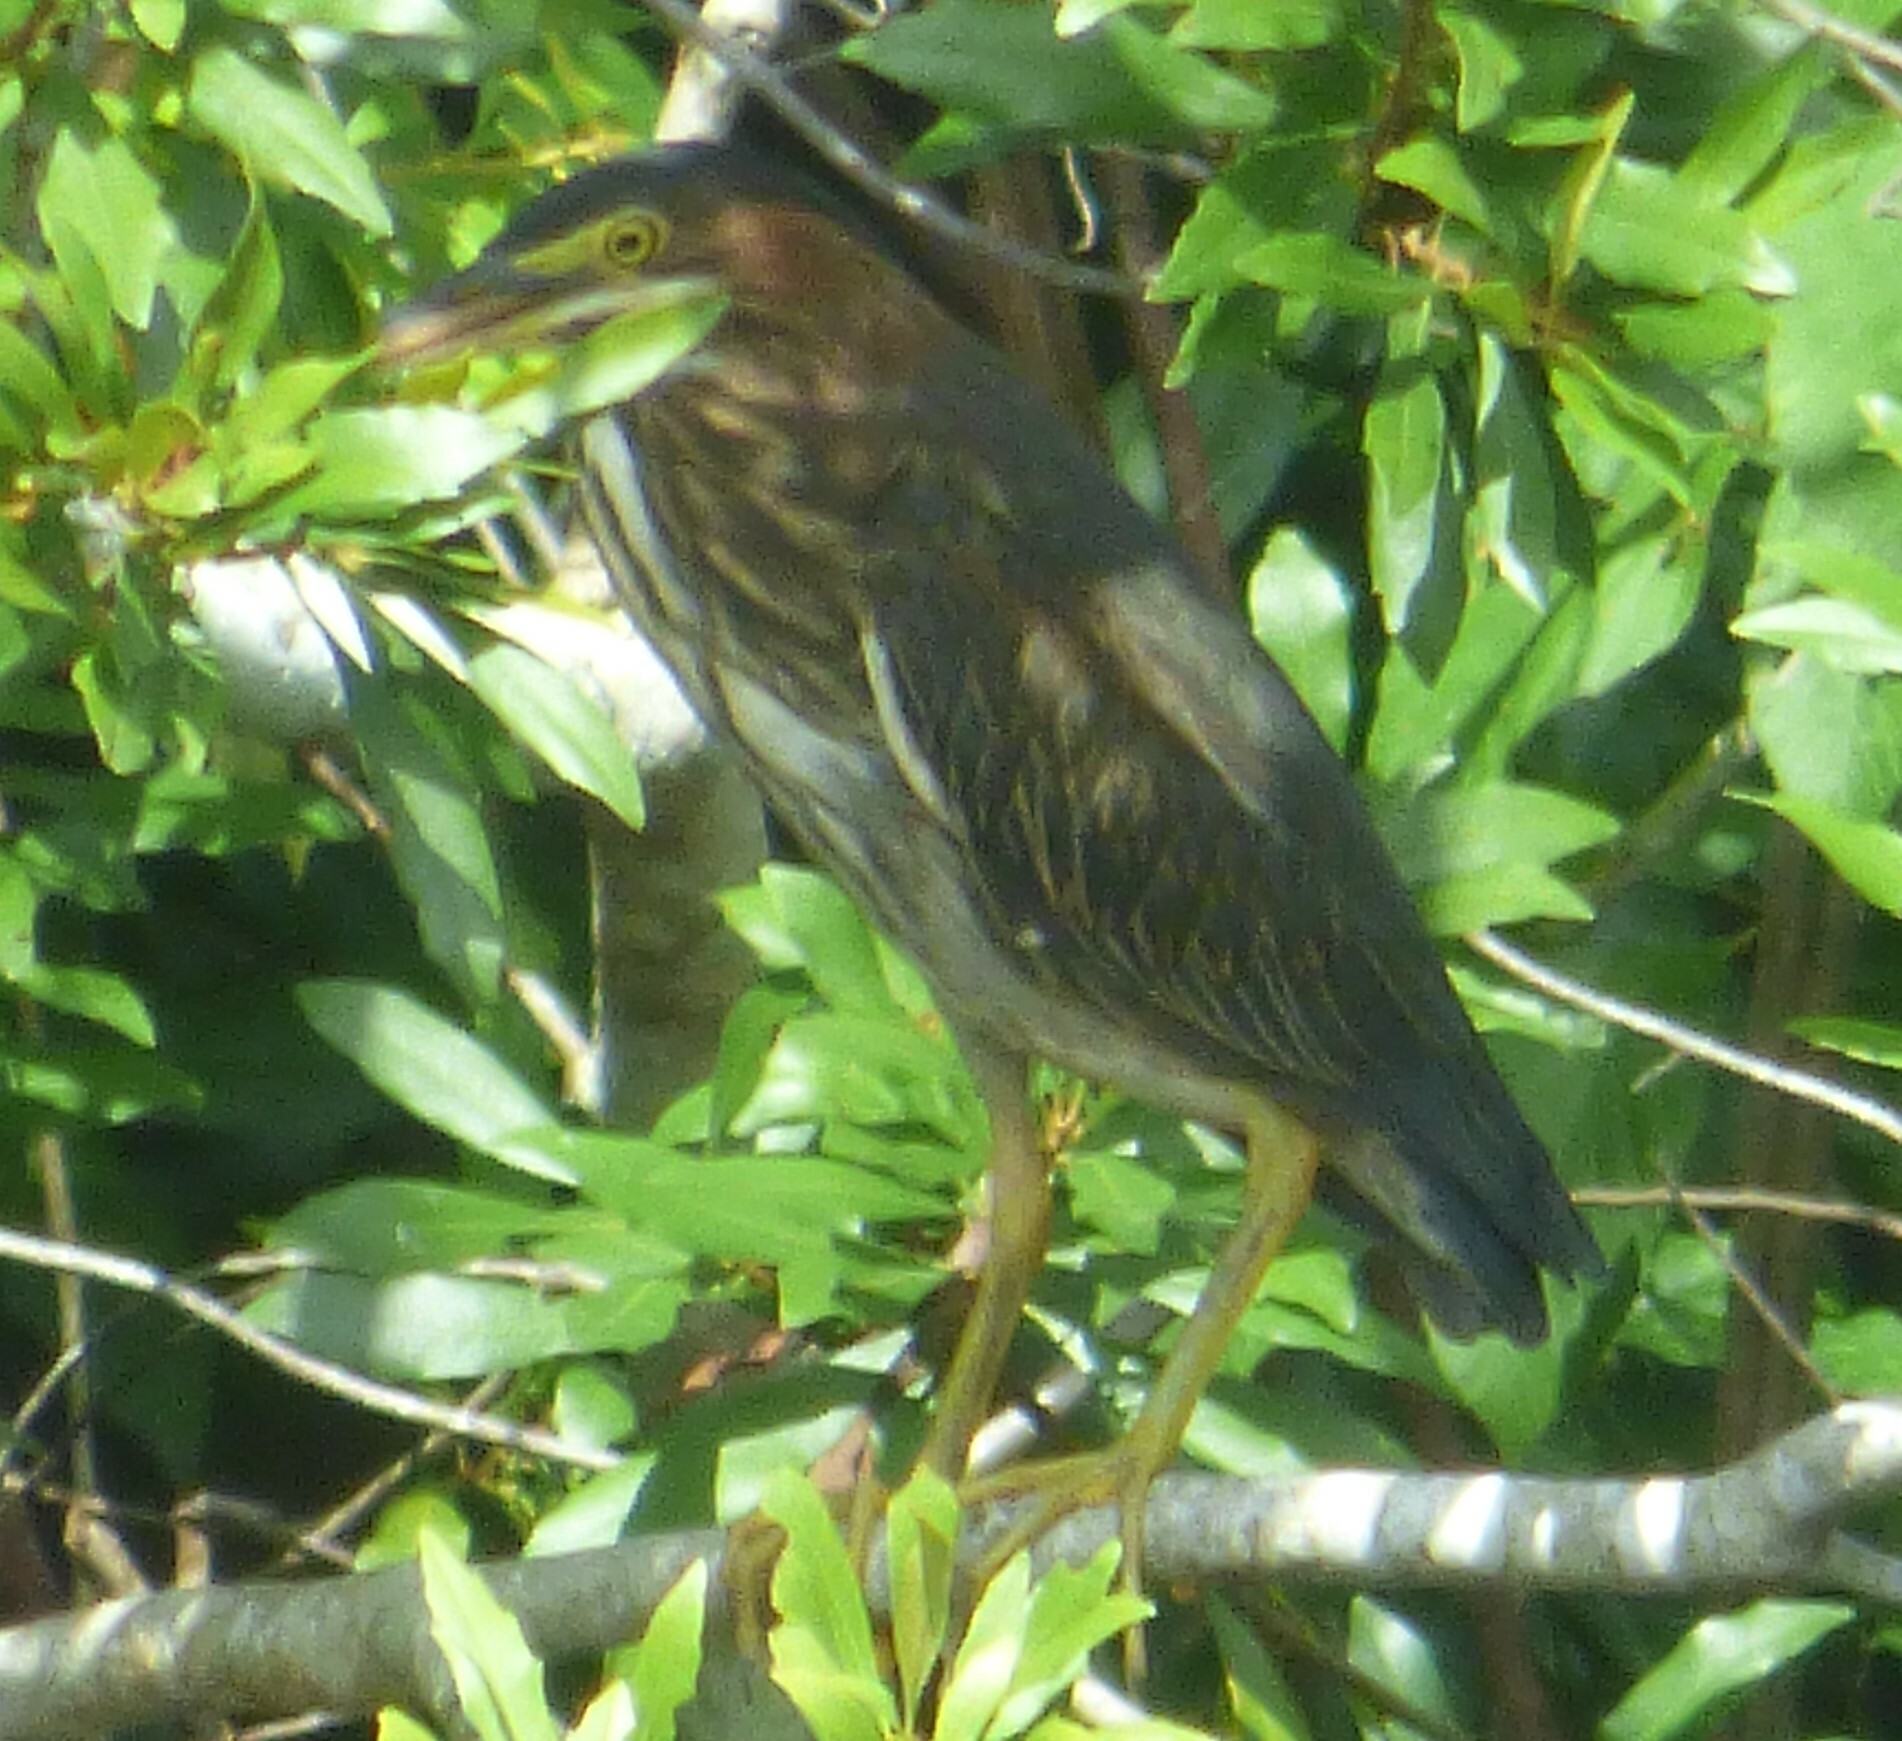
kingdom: Animalia
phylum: Chordata
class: Aves
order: Pelecaniformes
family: Ardeidae
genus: Butorides
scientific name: Butorides virescens
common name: Green heron
